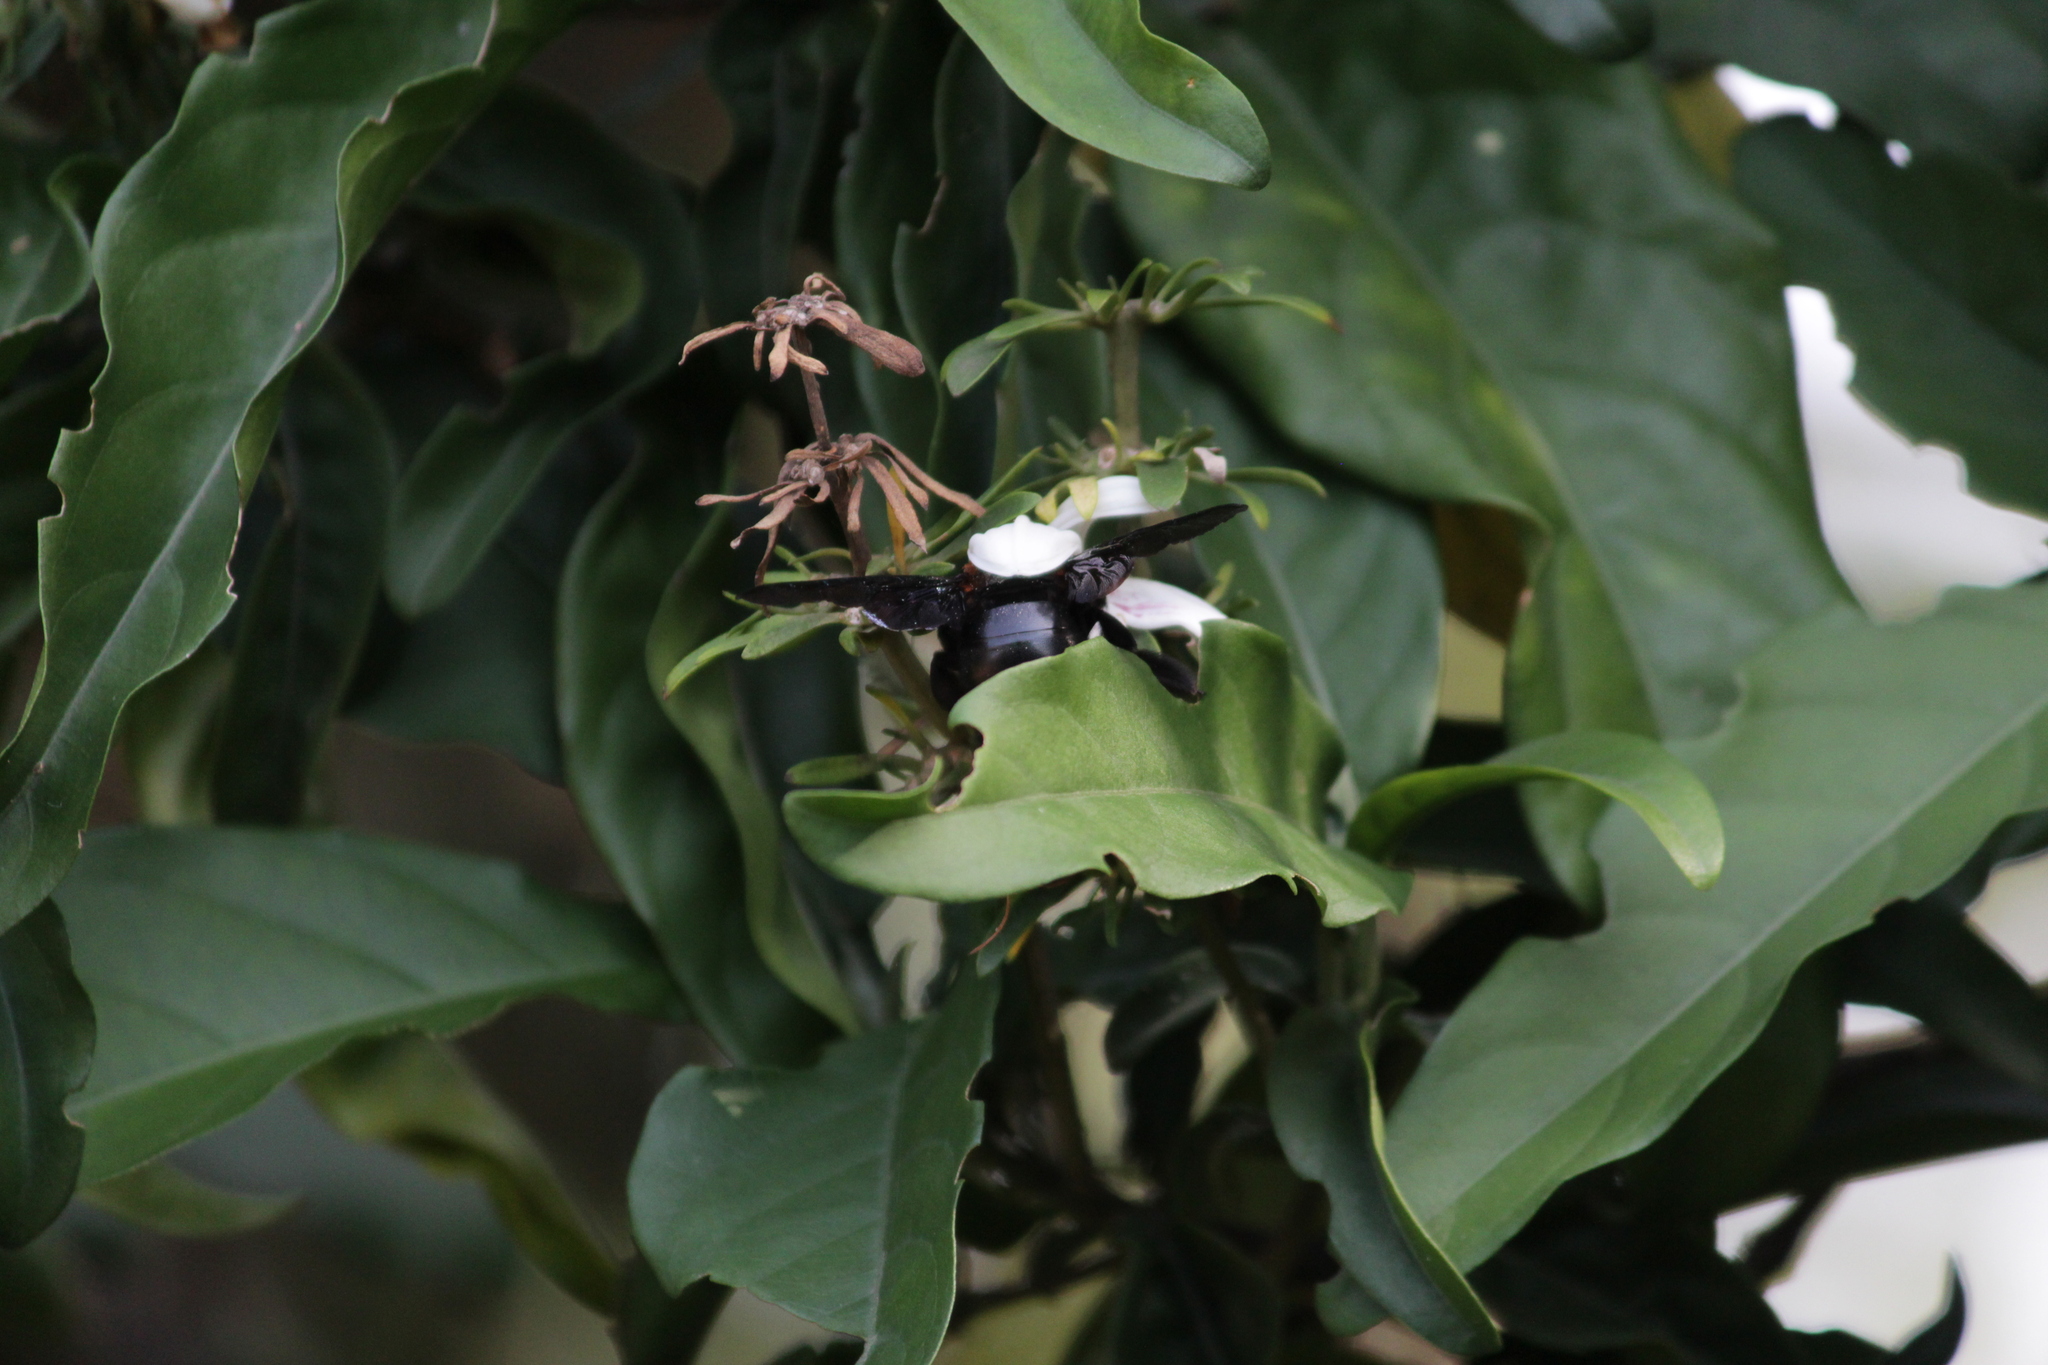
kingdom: Animalia
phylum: Arthropoda
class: Insecta
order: Hymenoptera
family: Apidae
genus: Xylocopa
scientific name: Xylocopa flavorufa
